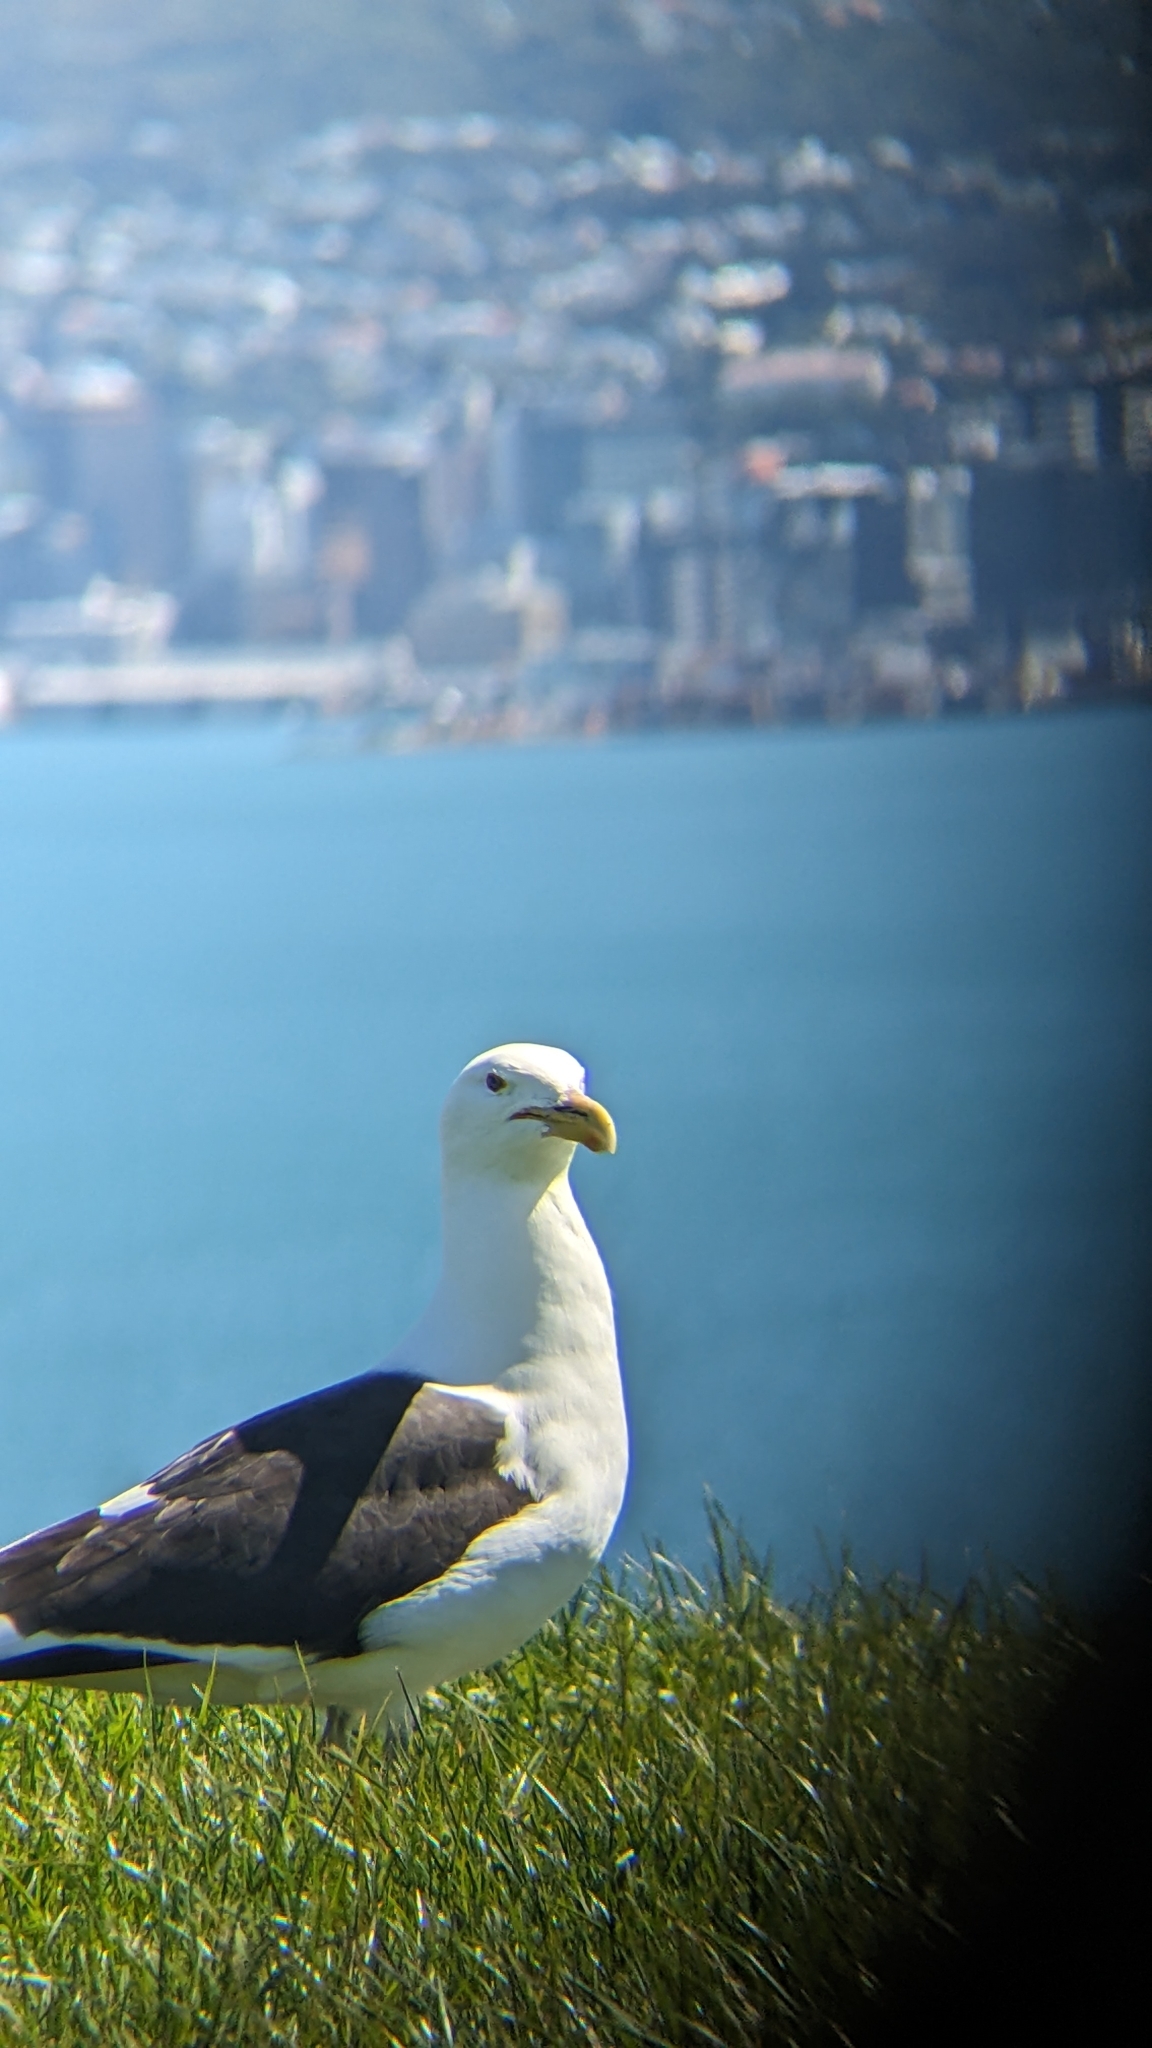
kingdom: Animalia
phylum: Chordata
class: Aves
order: Charadriiformes
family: Laridae
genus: Larus
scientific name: Larus dominicanus
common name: Kelp gull
